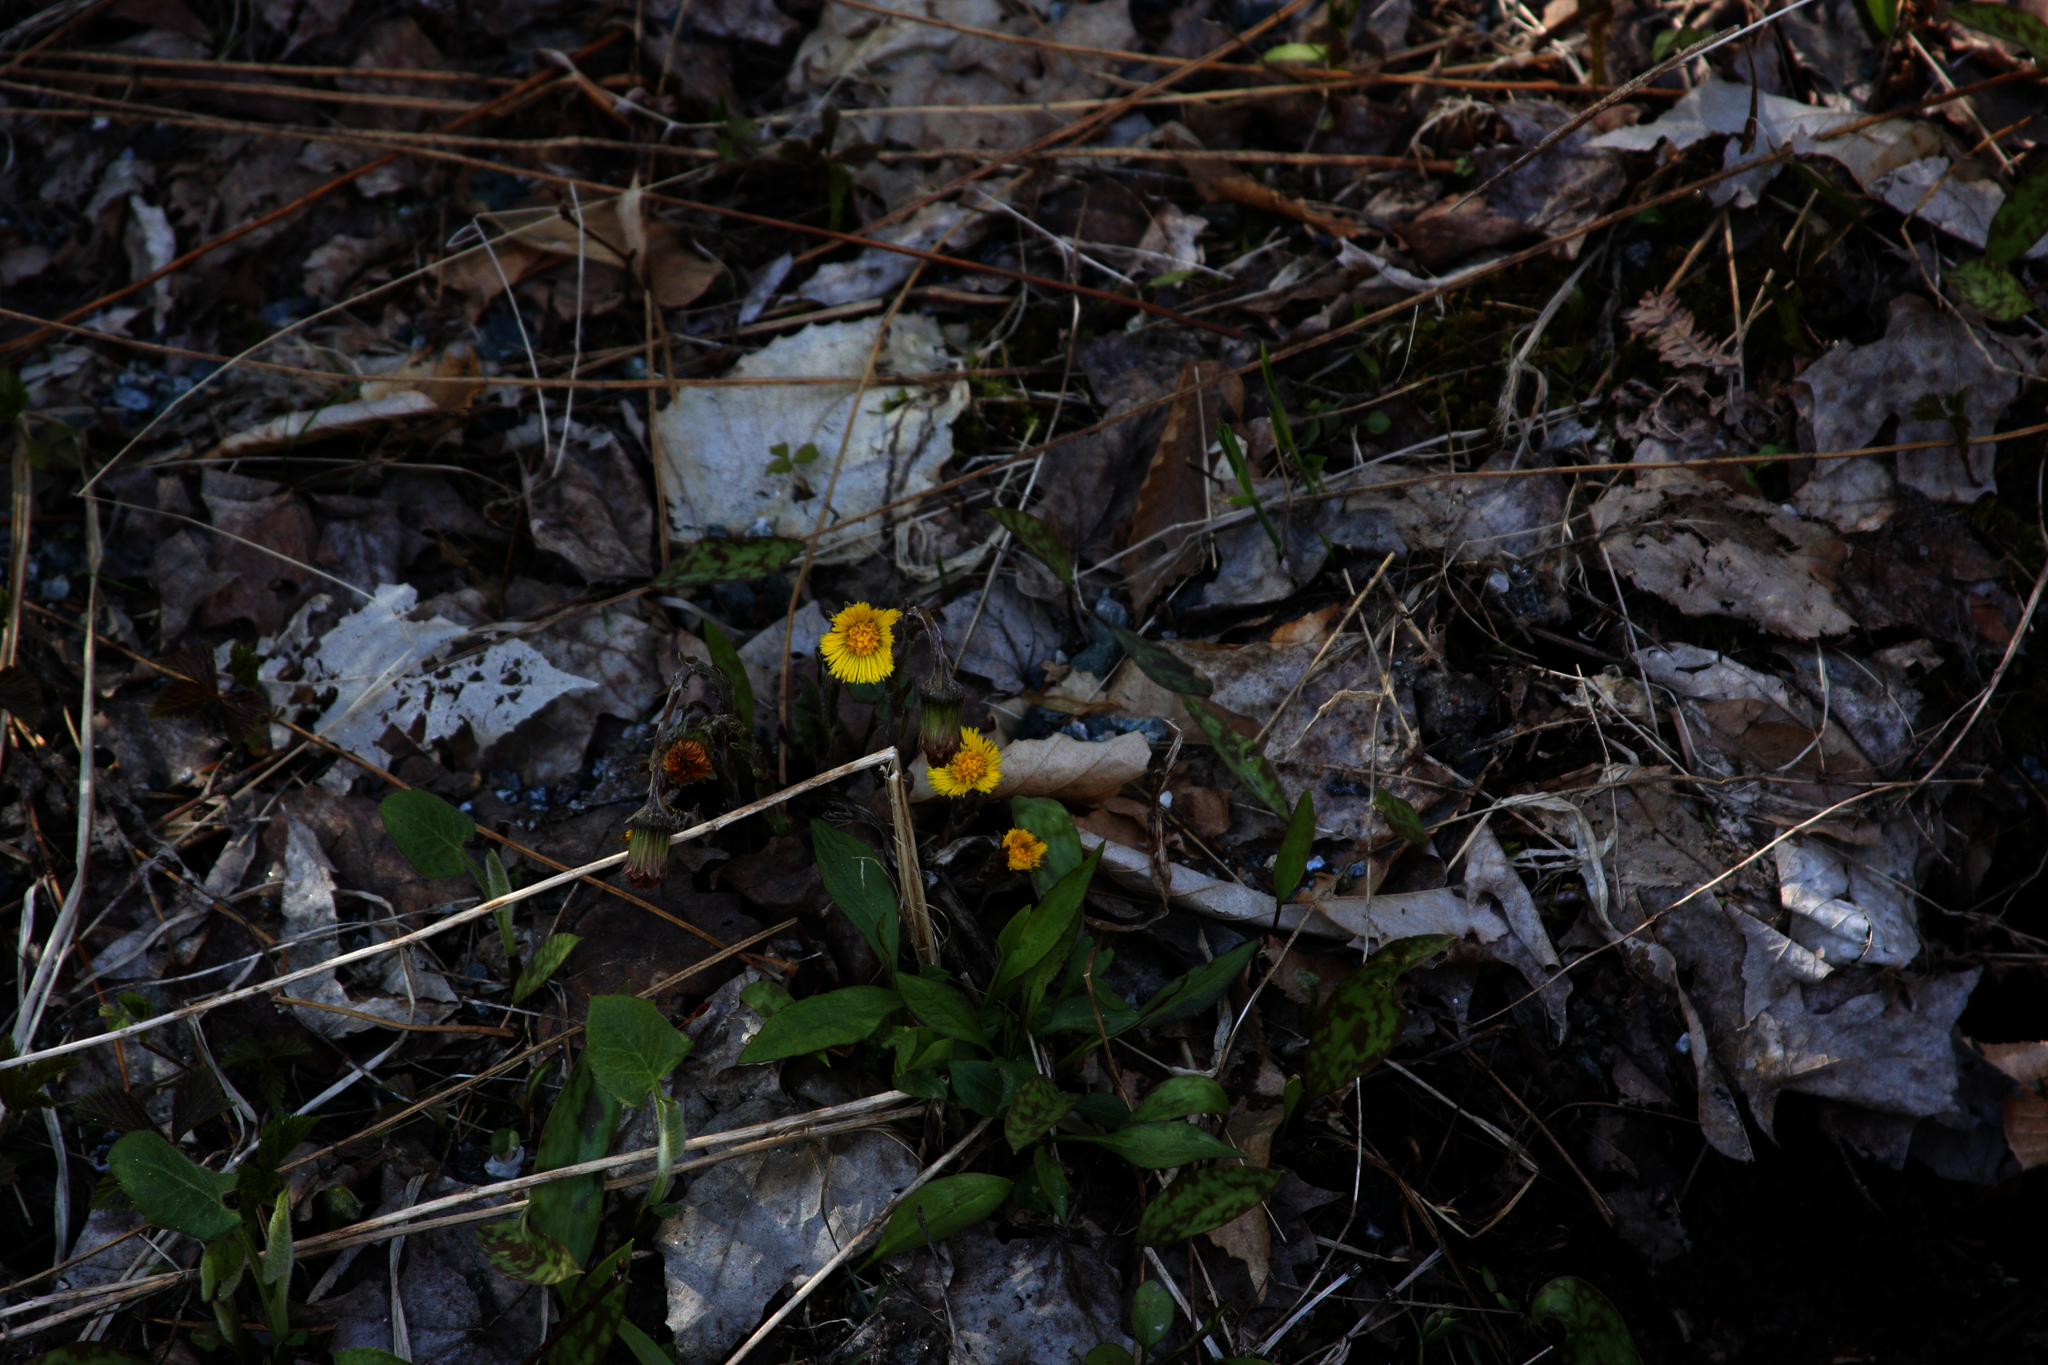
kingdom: Plantae
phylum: Tracheophyta
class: Magnoliopsida
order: Asterales
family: Asteraceae
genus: Tussilago
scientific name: Tussilago farfara
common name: Coltsfoot
